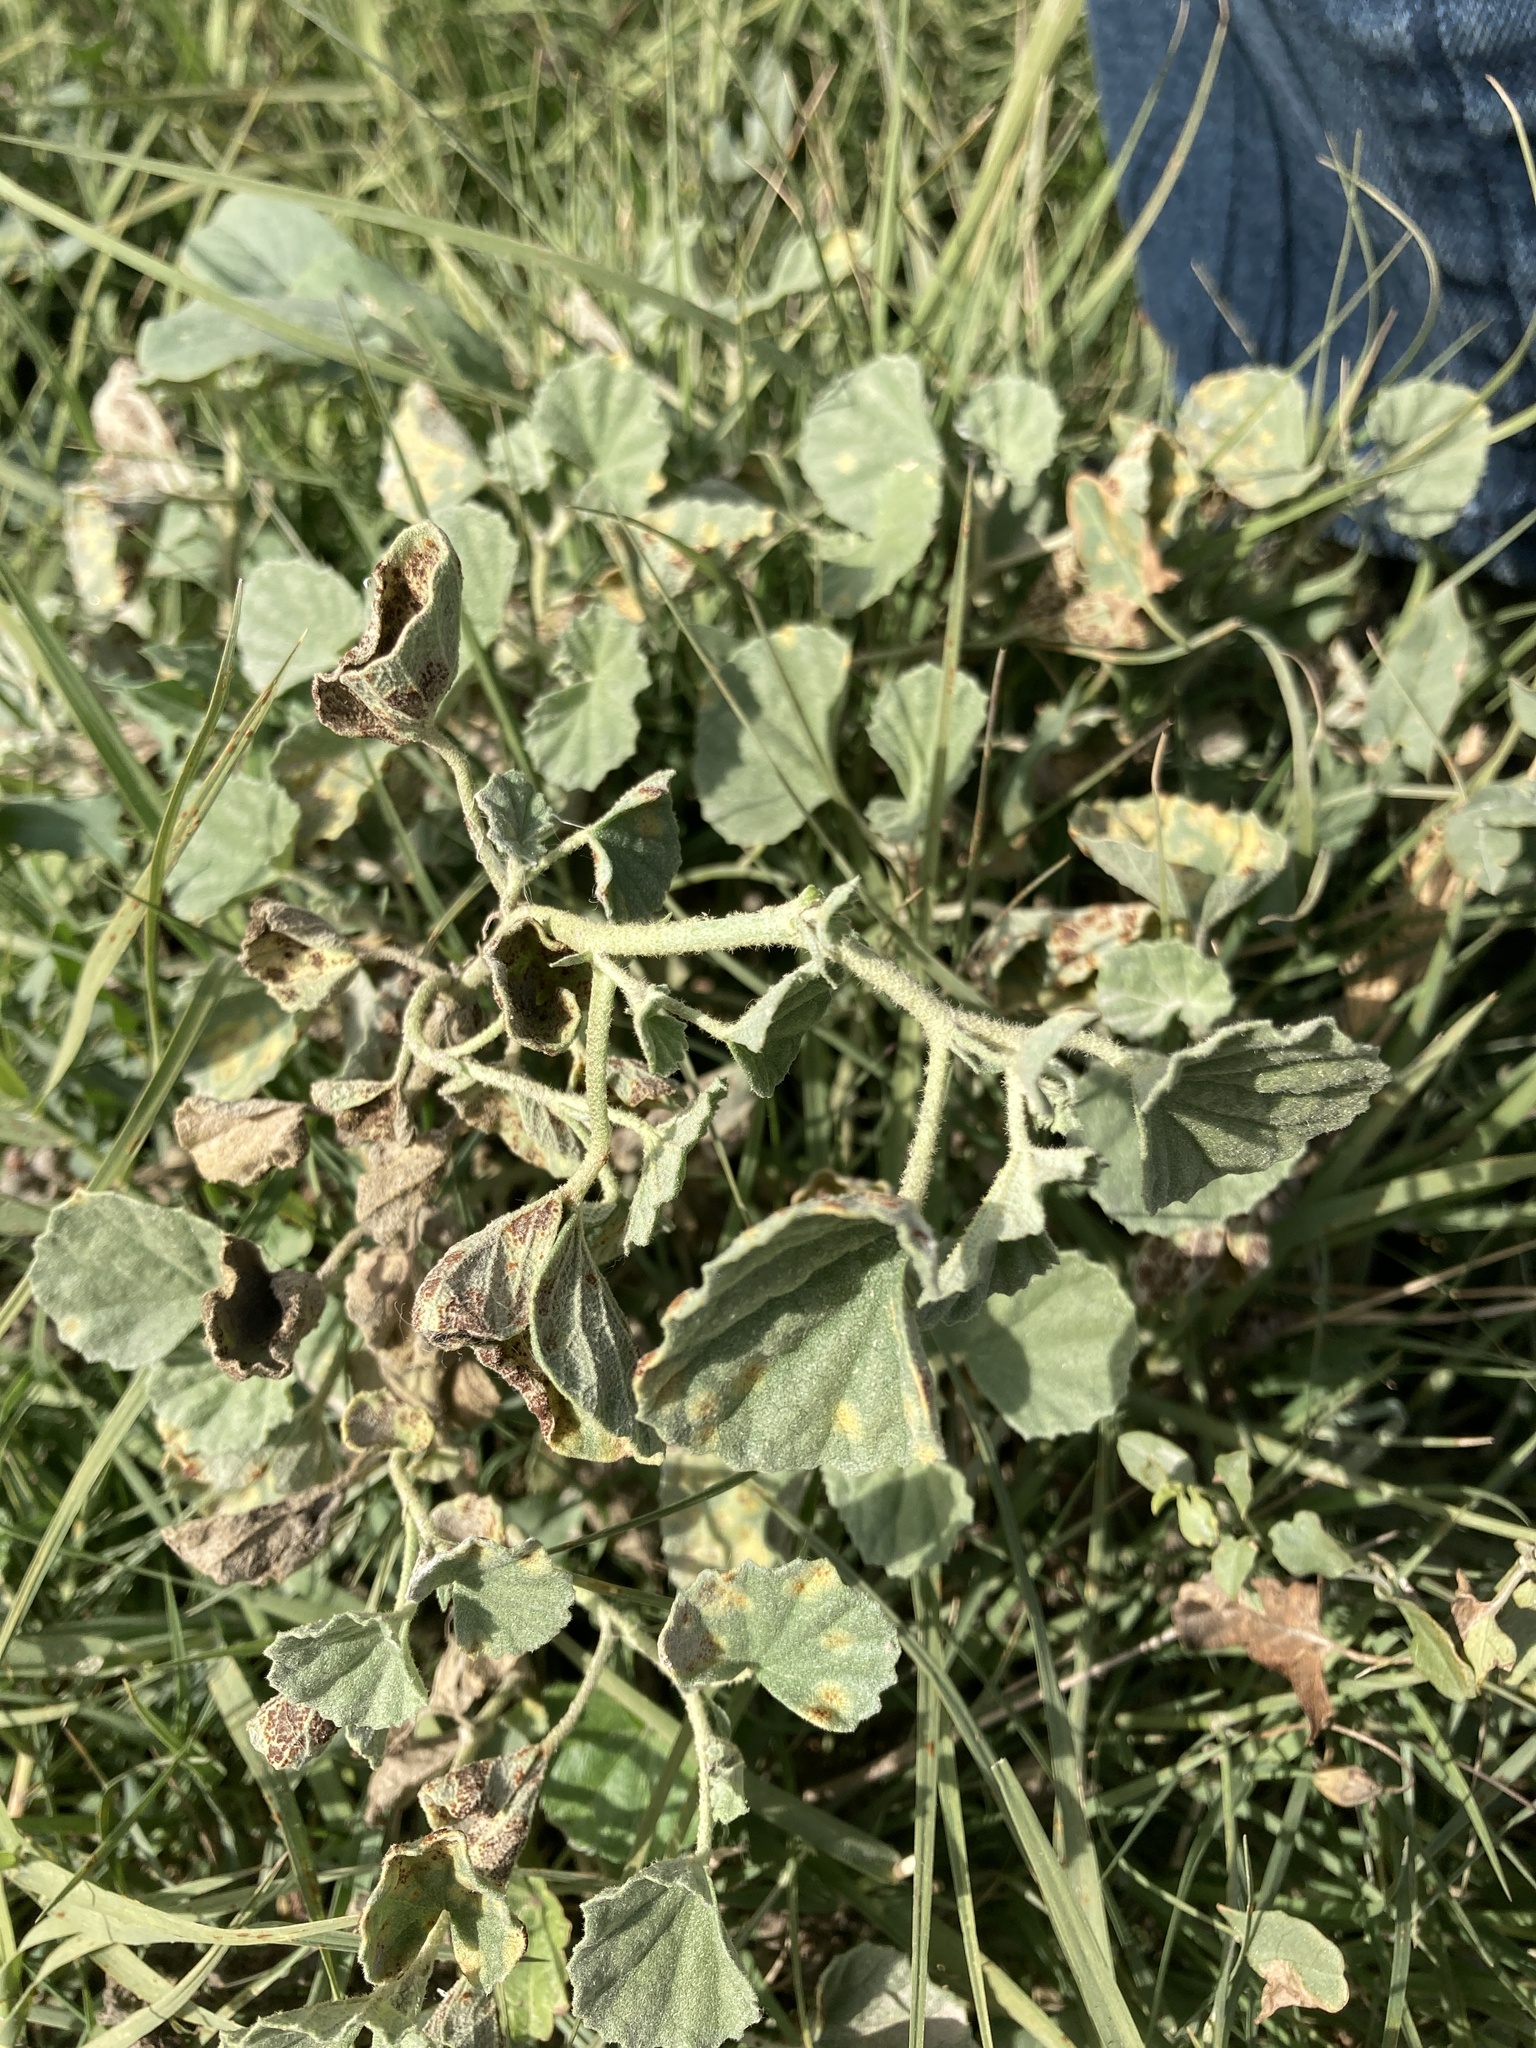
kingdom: Plantae
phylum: Tracheophyta
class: Magnoliopsida
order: Malvales
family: Malvaceae
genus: Malvella
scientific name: Malvella leprosa
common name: Alkali-mallow
